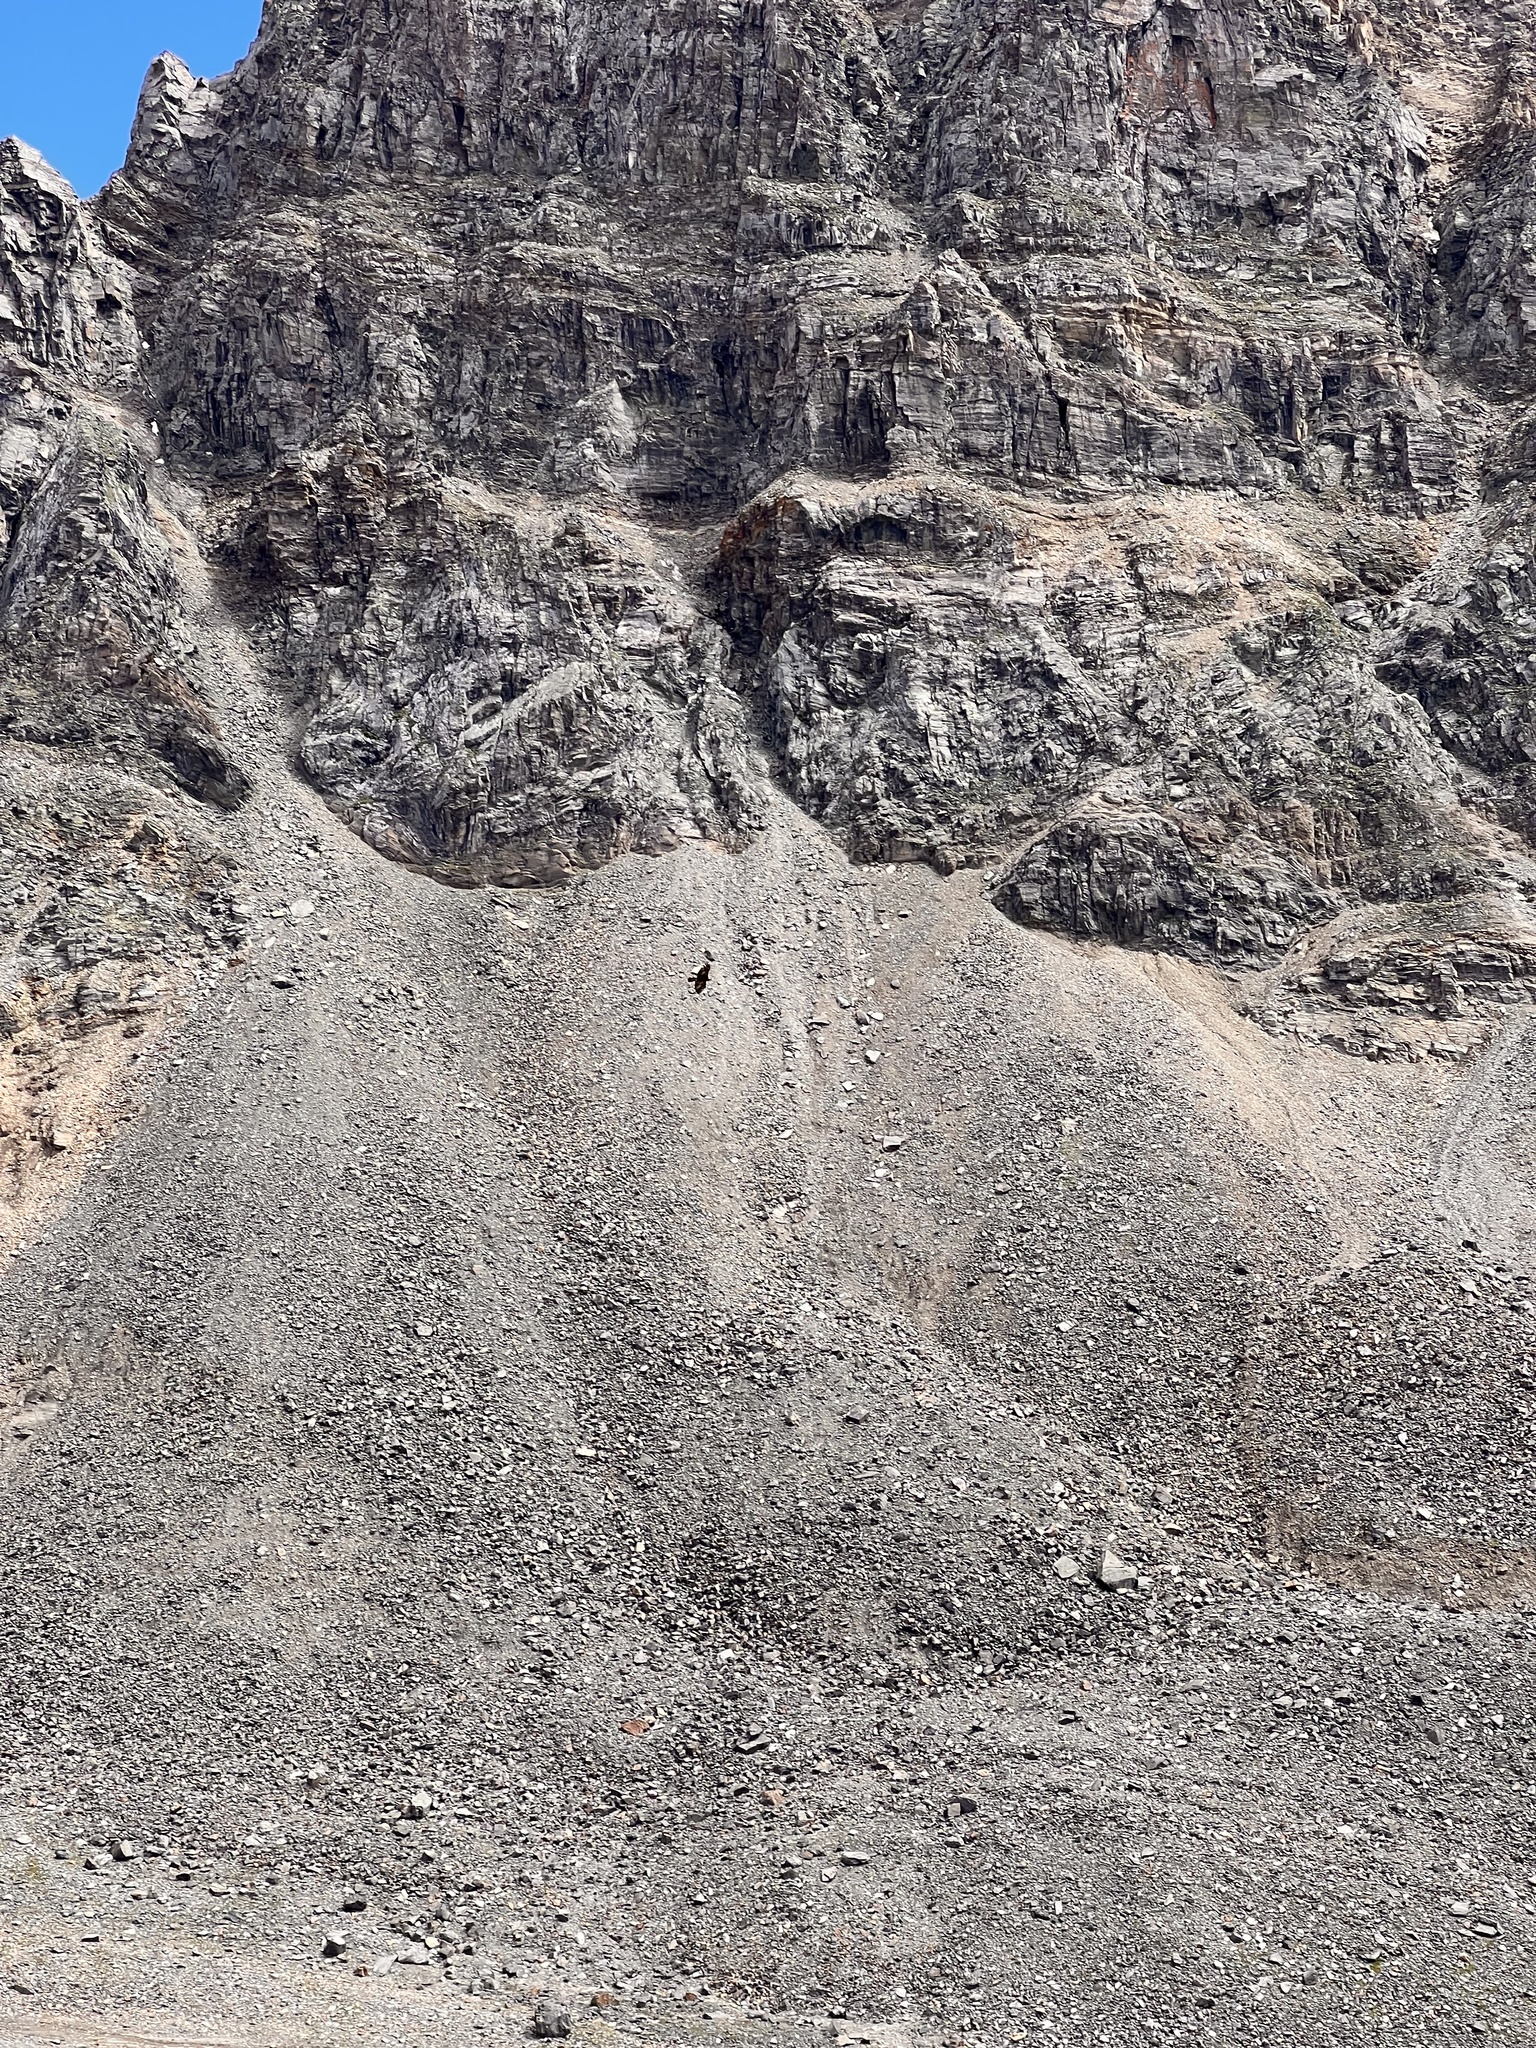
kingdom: Animalia
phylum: Chordata
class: Aves
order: Accipitriformes
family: Accipitridae
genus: Aquila
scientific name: Aquila chrysaetos
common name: Golden eagle
